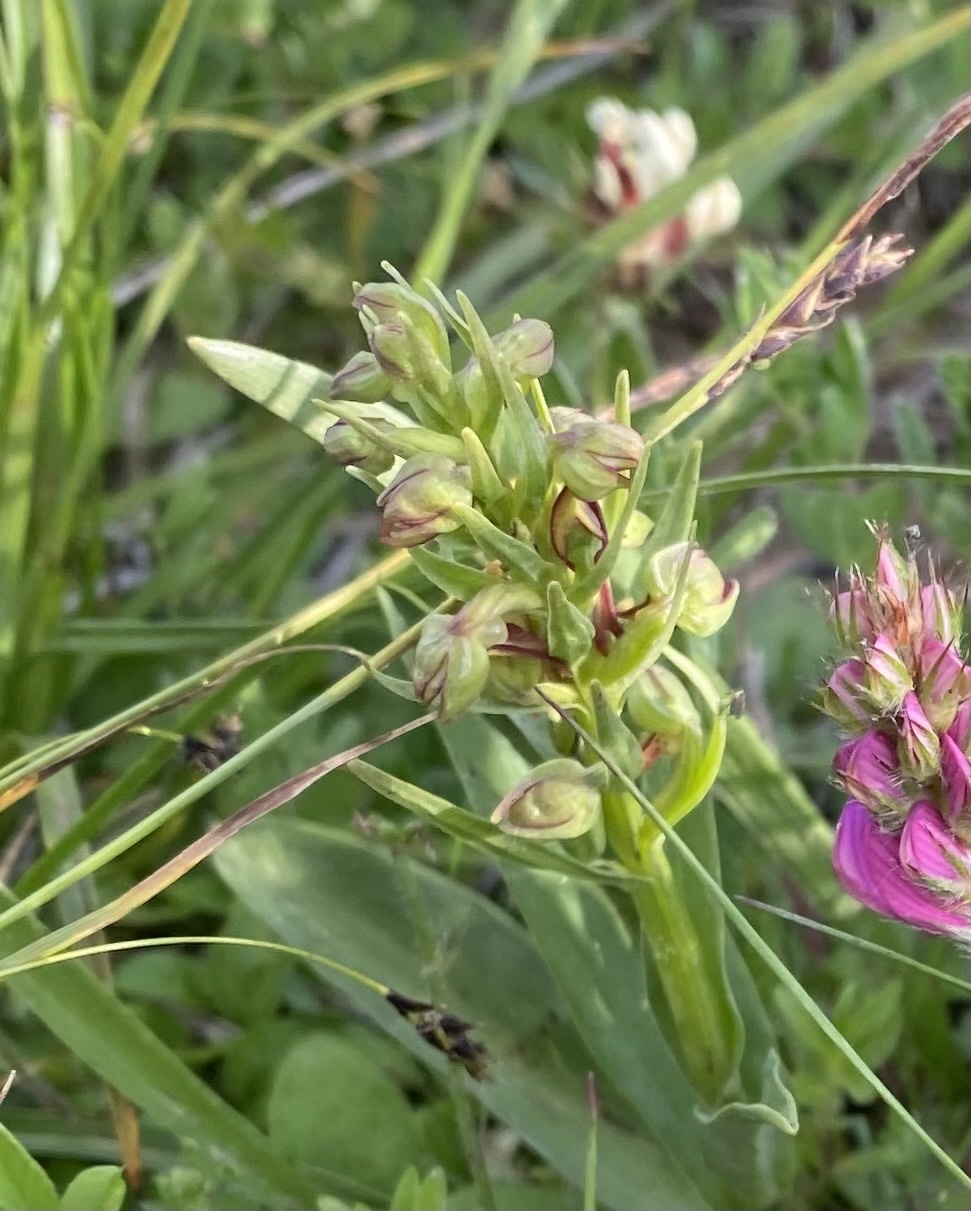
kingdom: Plantae
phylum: Tracheophyta
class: Liliopsida
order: Asparagales
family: Orchidaceae
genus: Dactylorhiza
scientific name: Dactylorhiza viridis
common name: Longbract frog orchid
